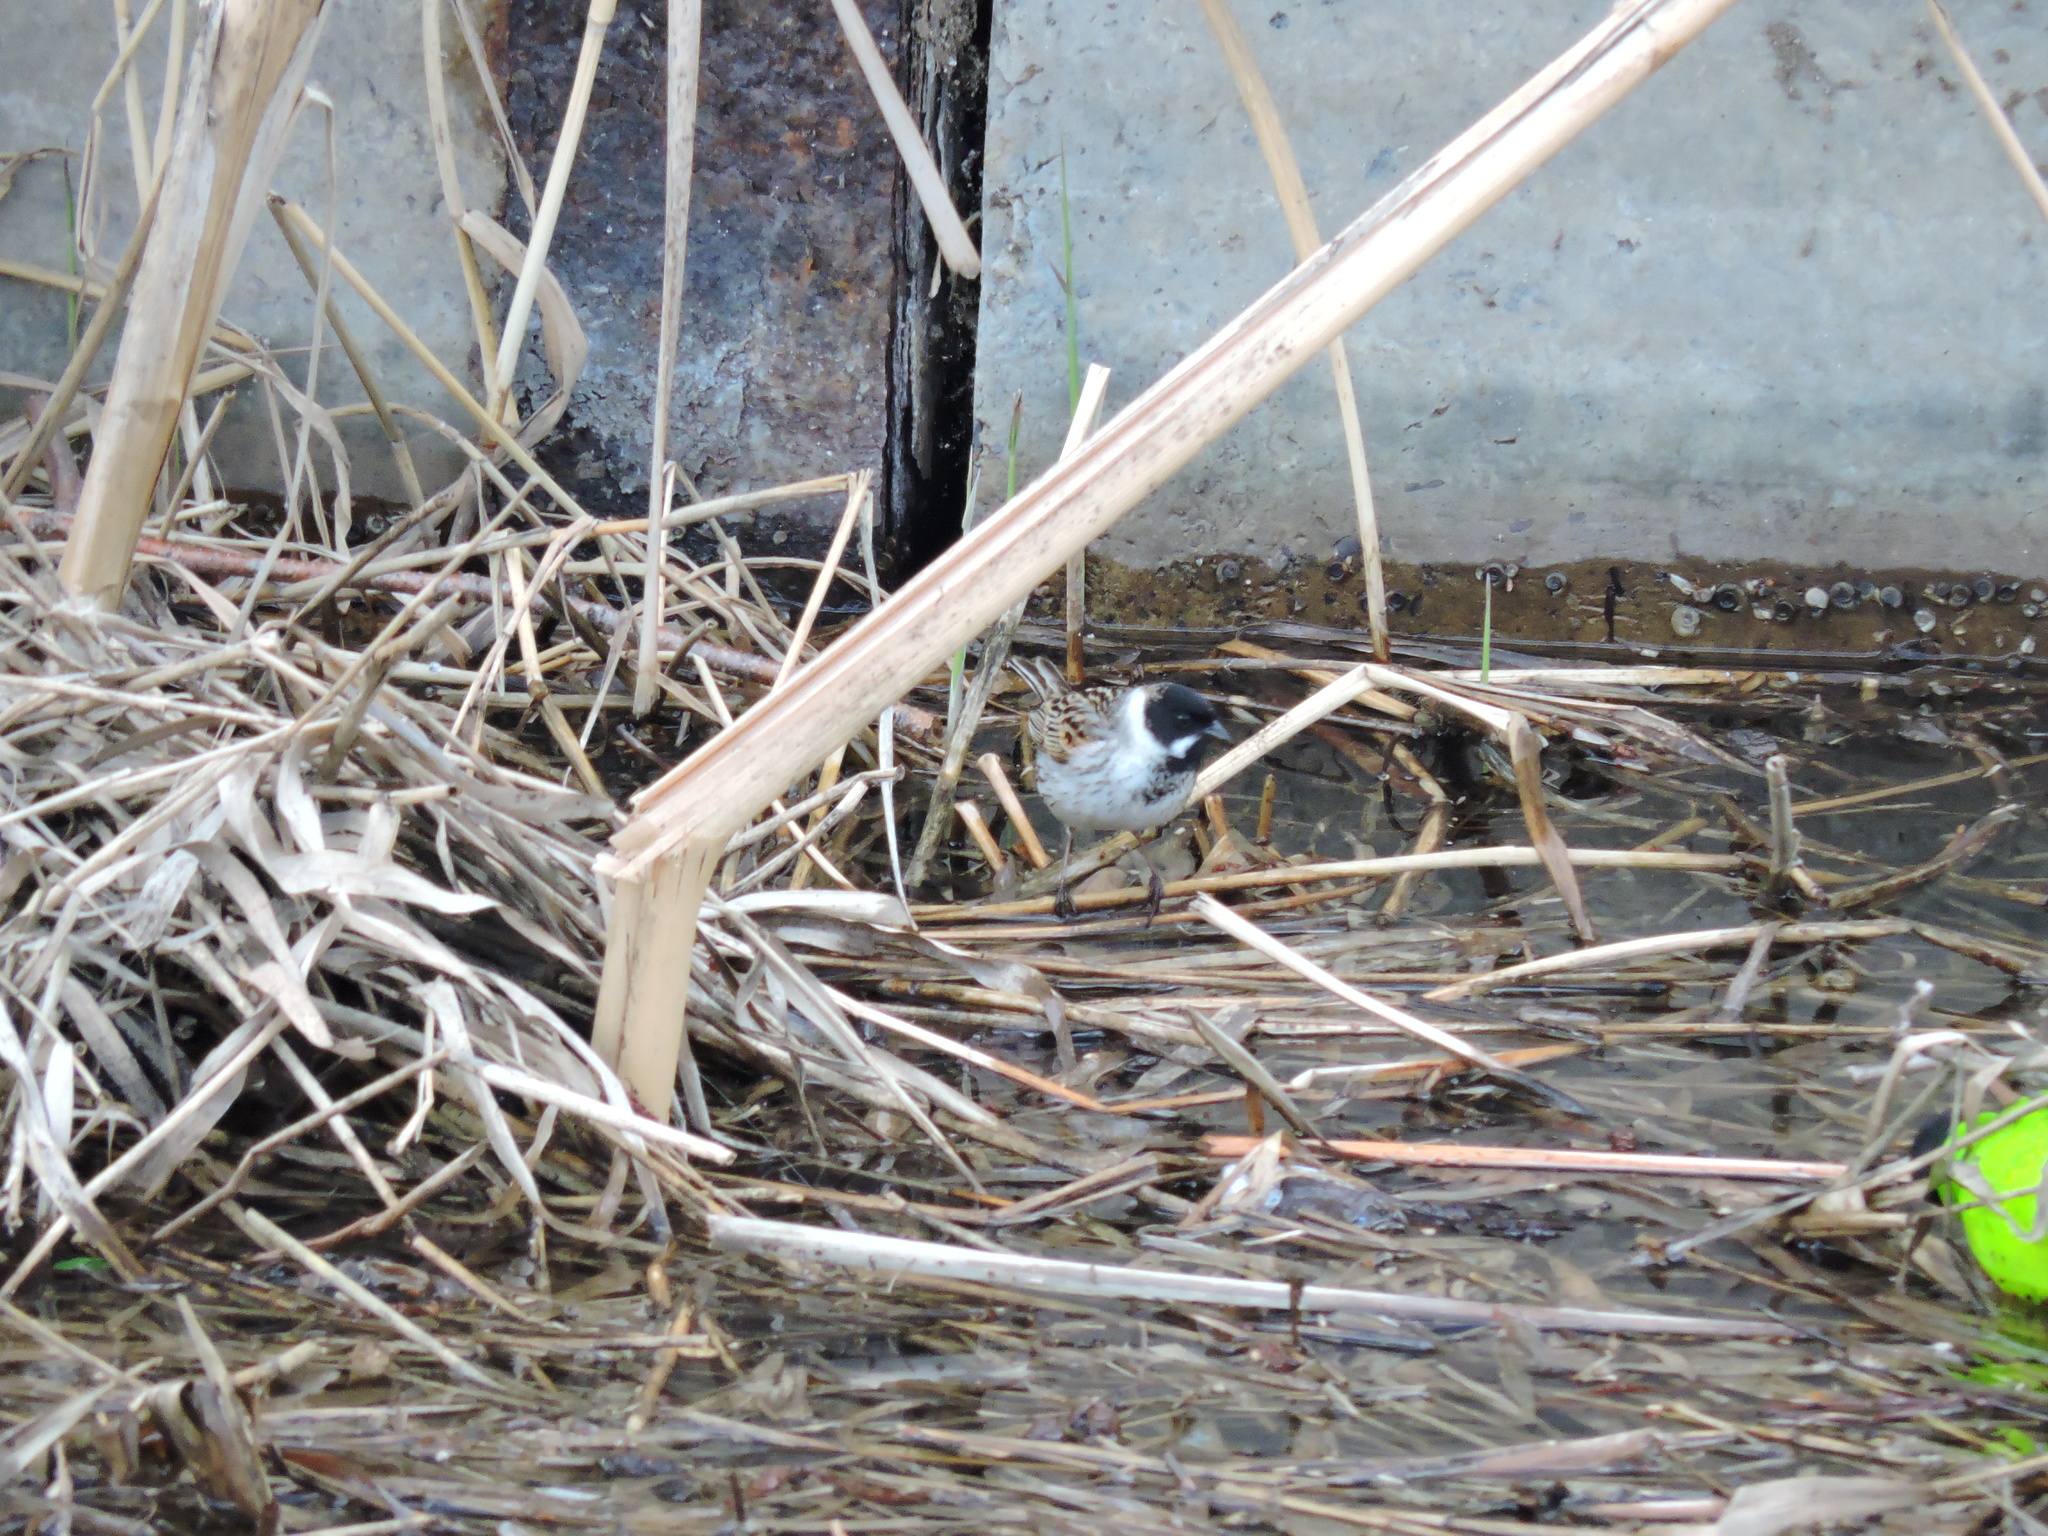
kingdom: Animalia
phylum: Chordata
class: Aves
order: Passeriformes
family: Emberizidae
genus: Emberiza
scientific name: Emberiza schoeniclus
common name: Reed bunting
